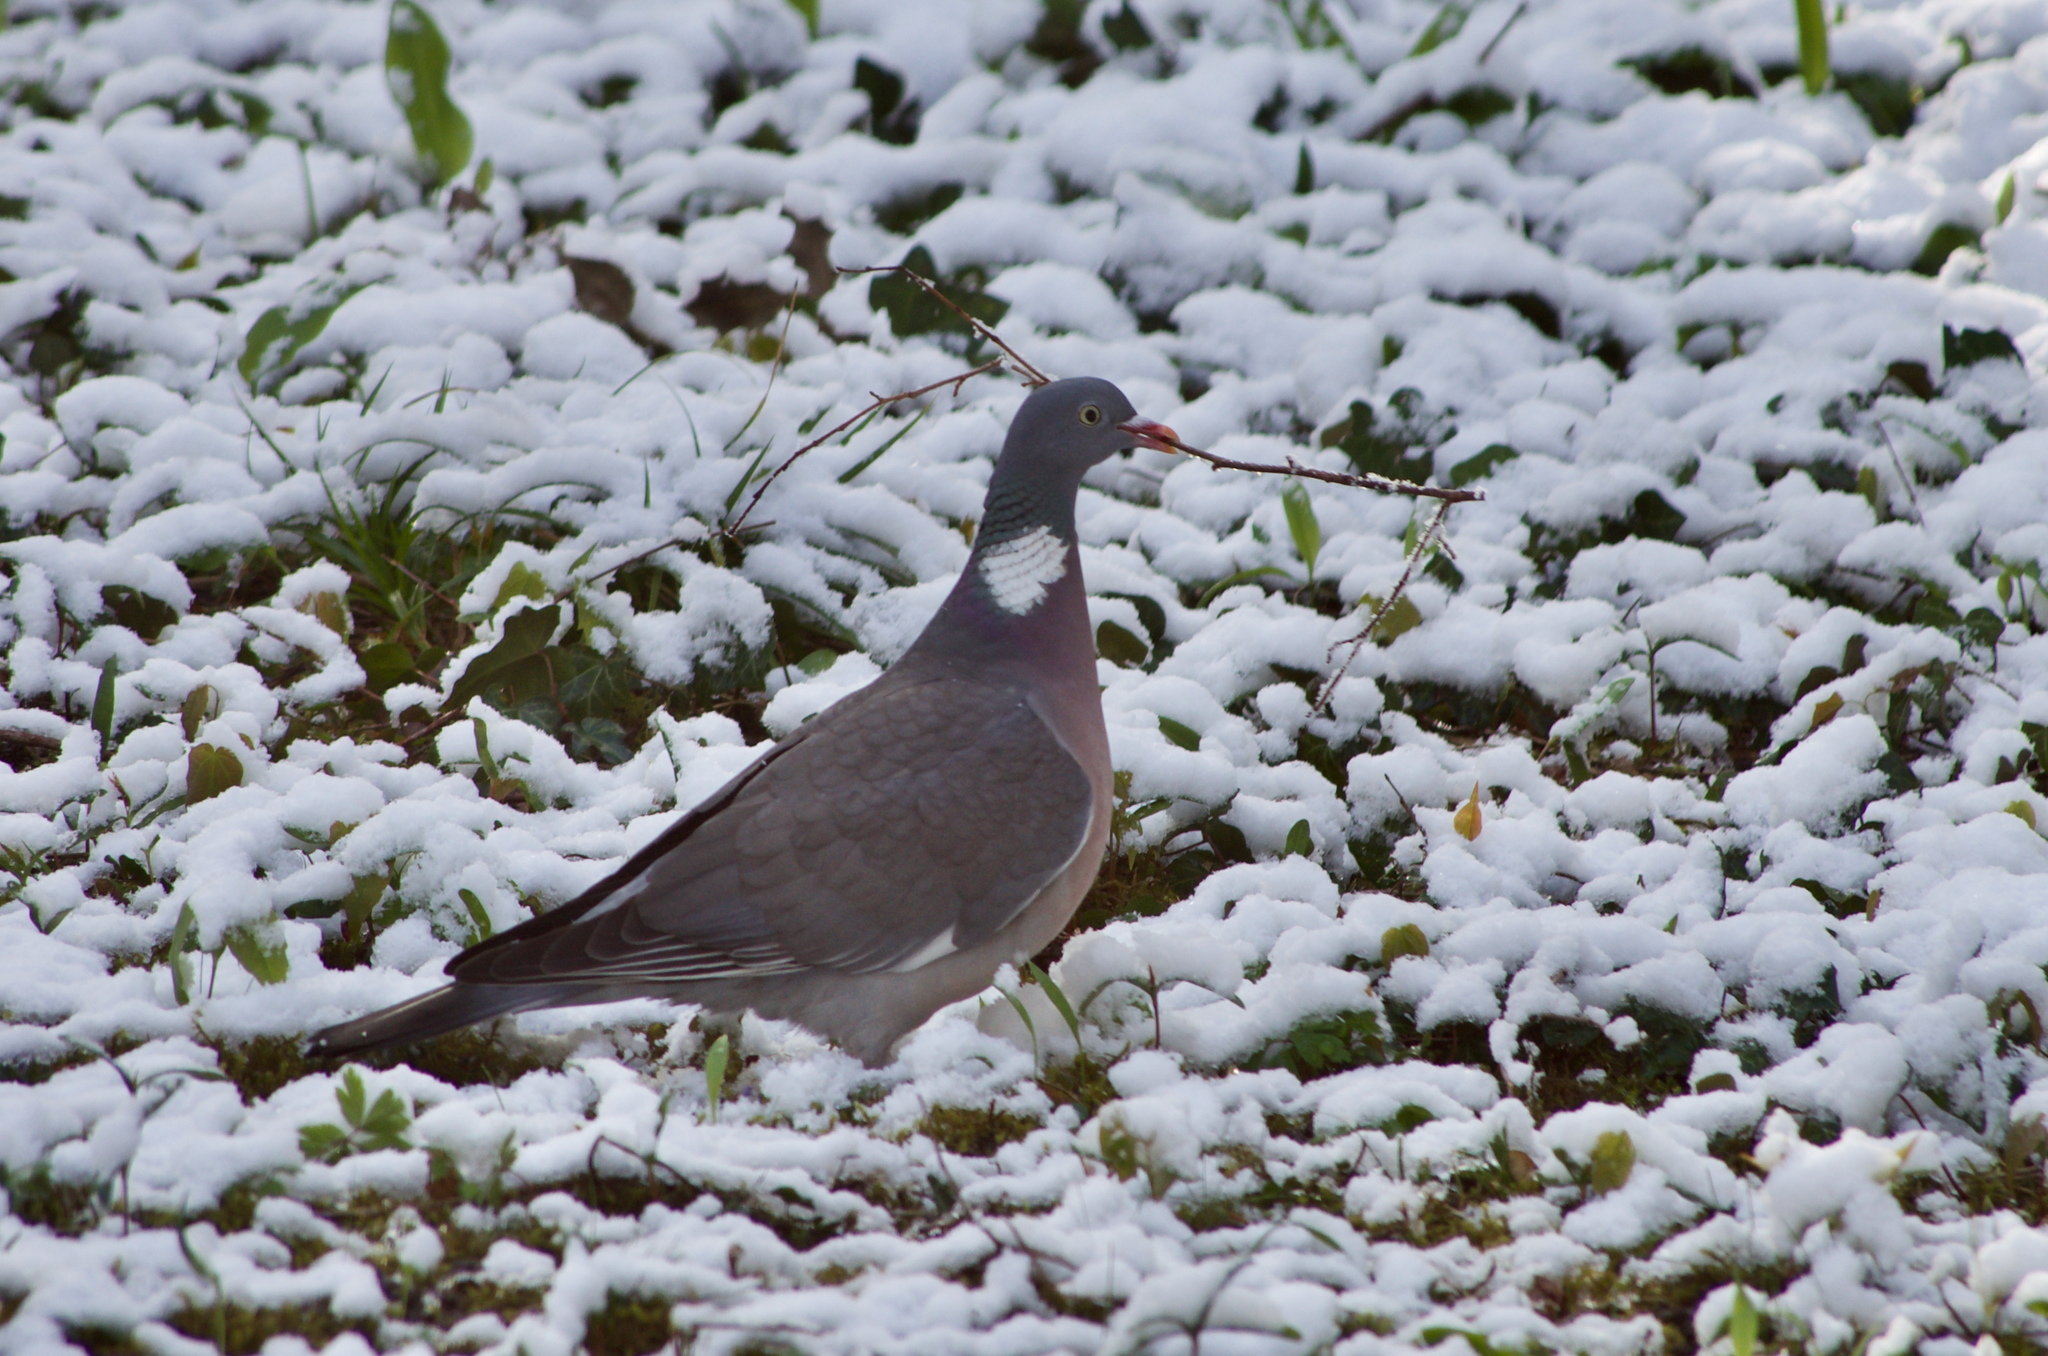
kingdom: Animalia
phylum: Chordata
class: Aves
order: Columbiformes
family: Columbidae
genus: Columba
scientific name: Columba palumbus
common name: Common wood pigeon
